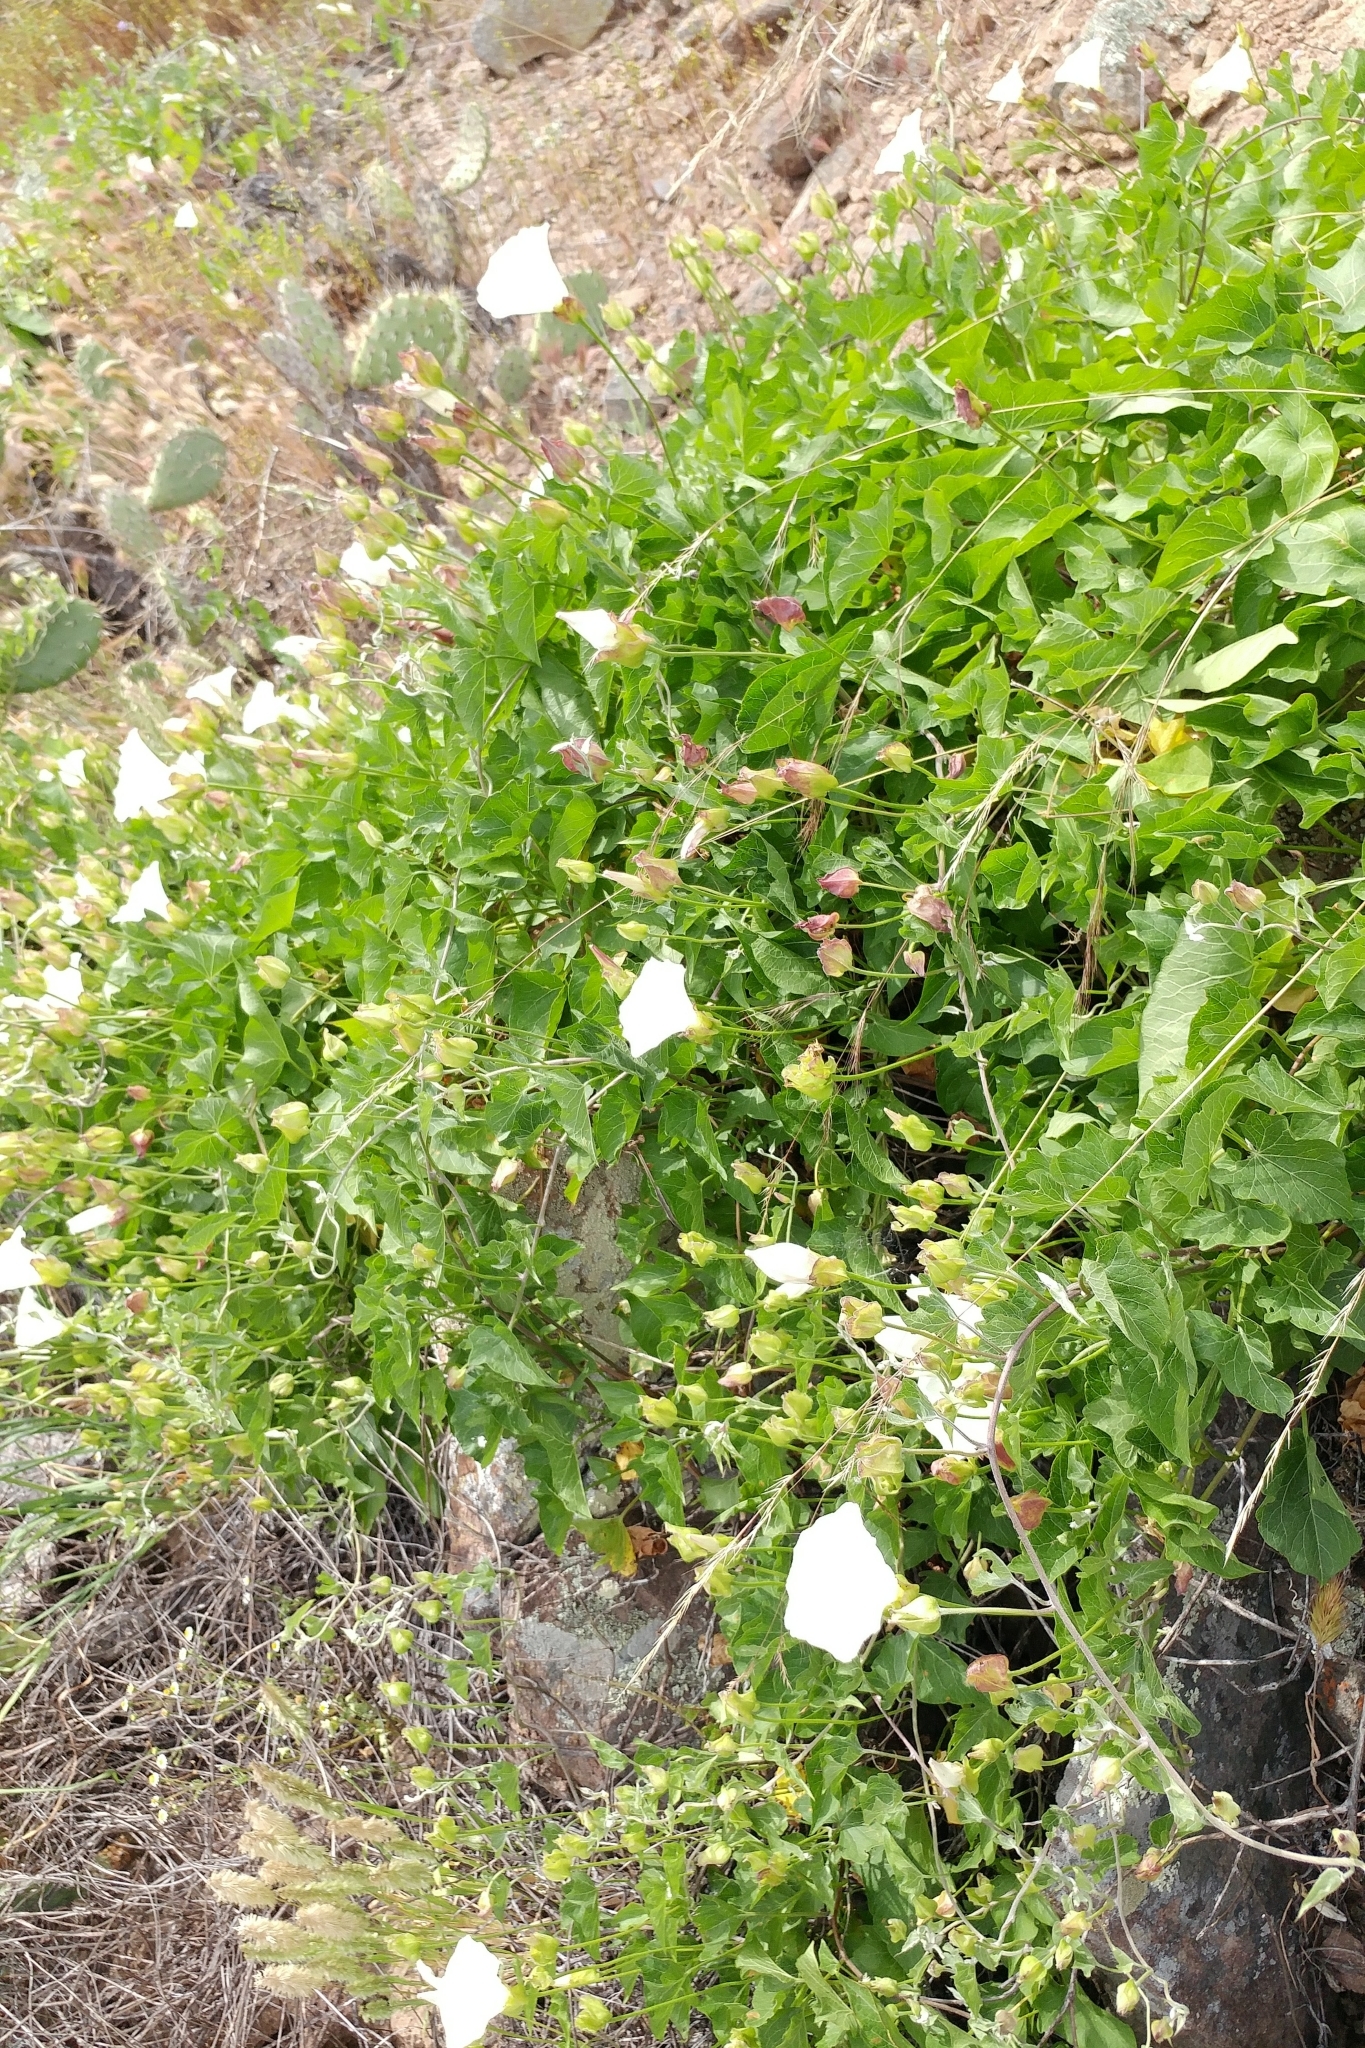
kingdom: Plantae
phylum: Tracheophyta
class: Magnoliopsida
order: Solanales
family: Convolvulaceae
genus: Calystegia
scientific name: Calystegia macrostegia
